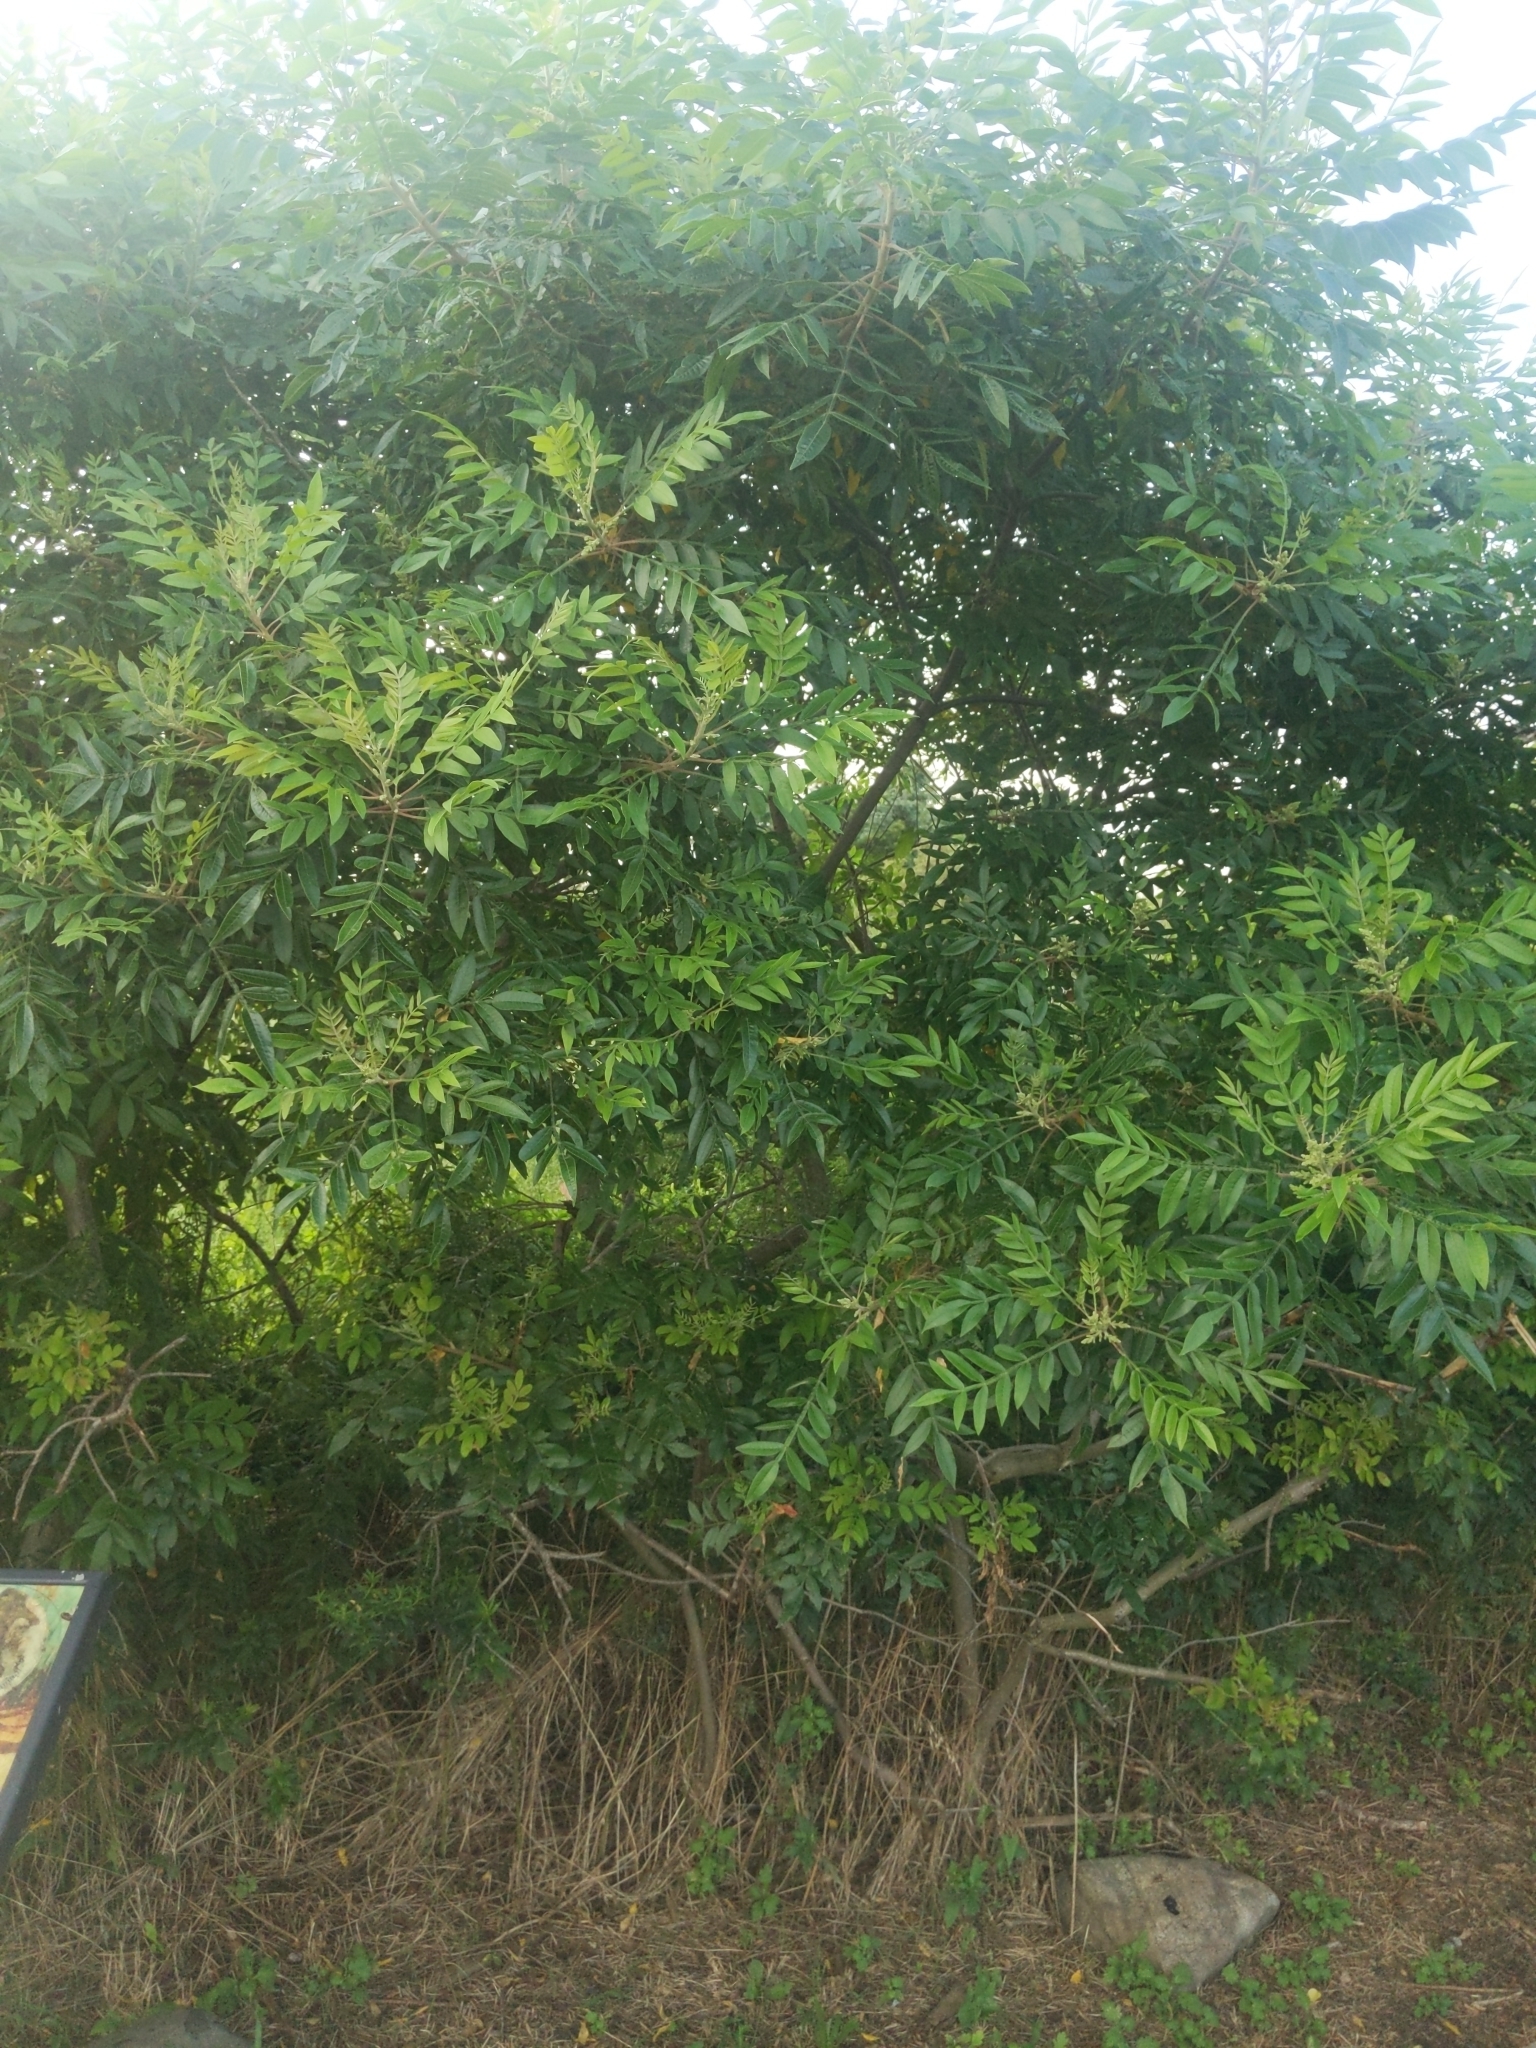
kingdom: Plantae
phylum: Tracheophyta
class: Magnoliopsida
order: Sapindales
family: Anacardiaceae
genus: Rhus
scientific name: Rhus copallina
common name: Shining sumac
